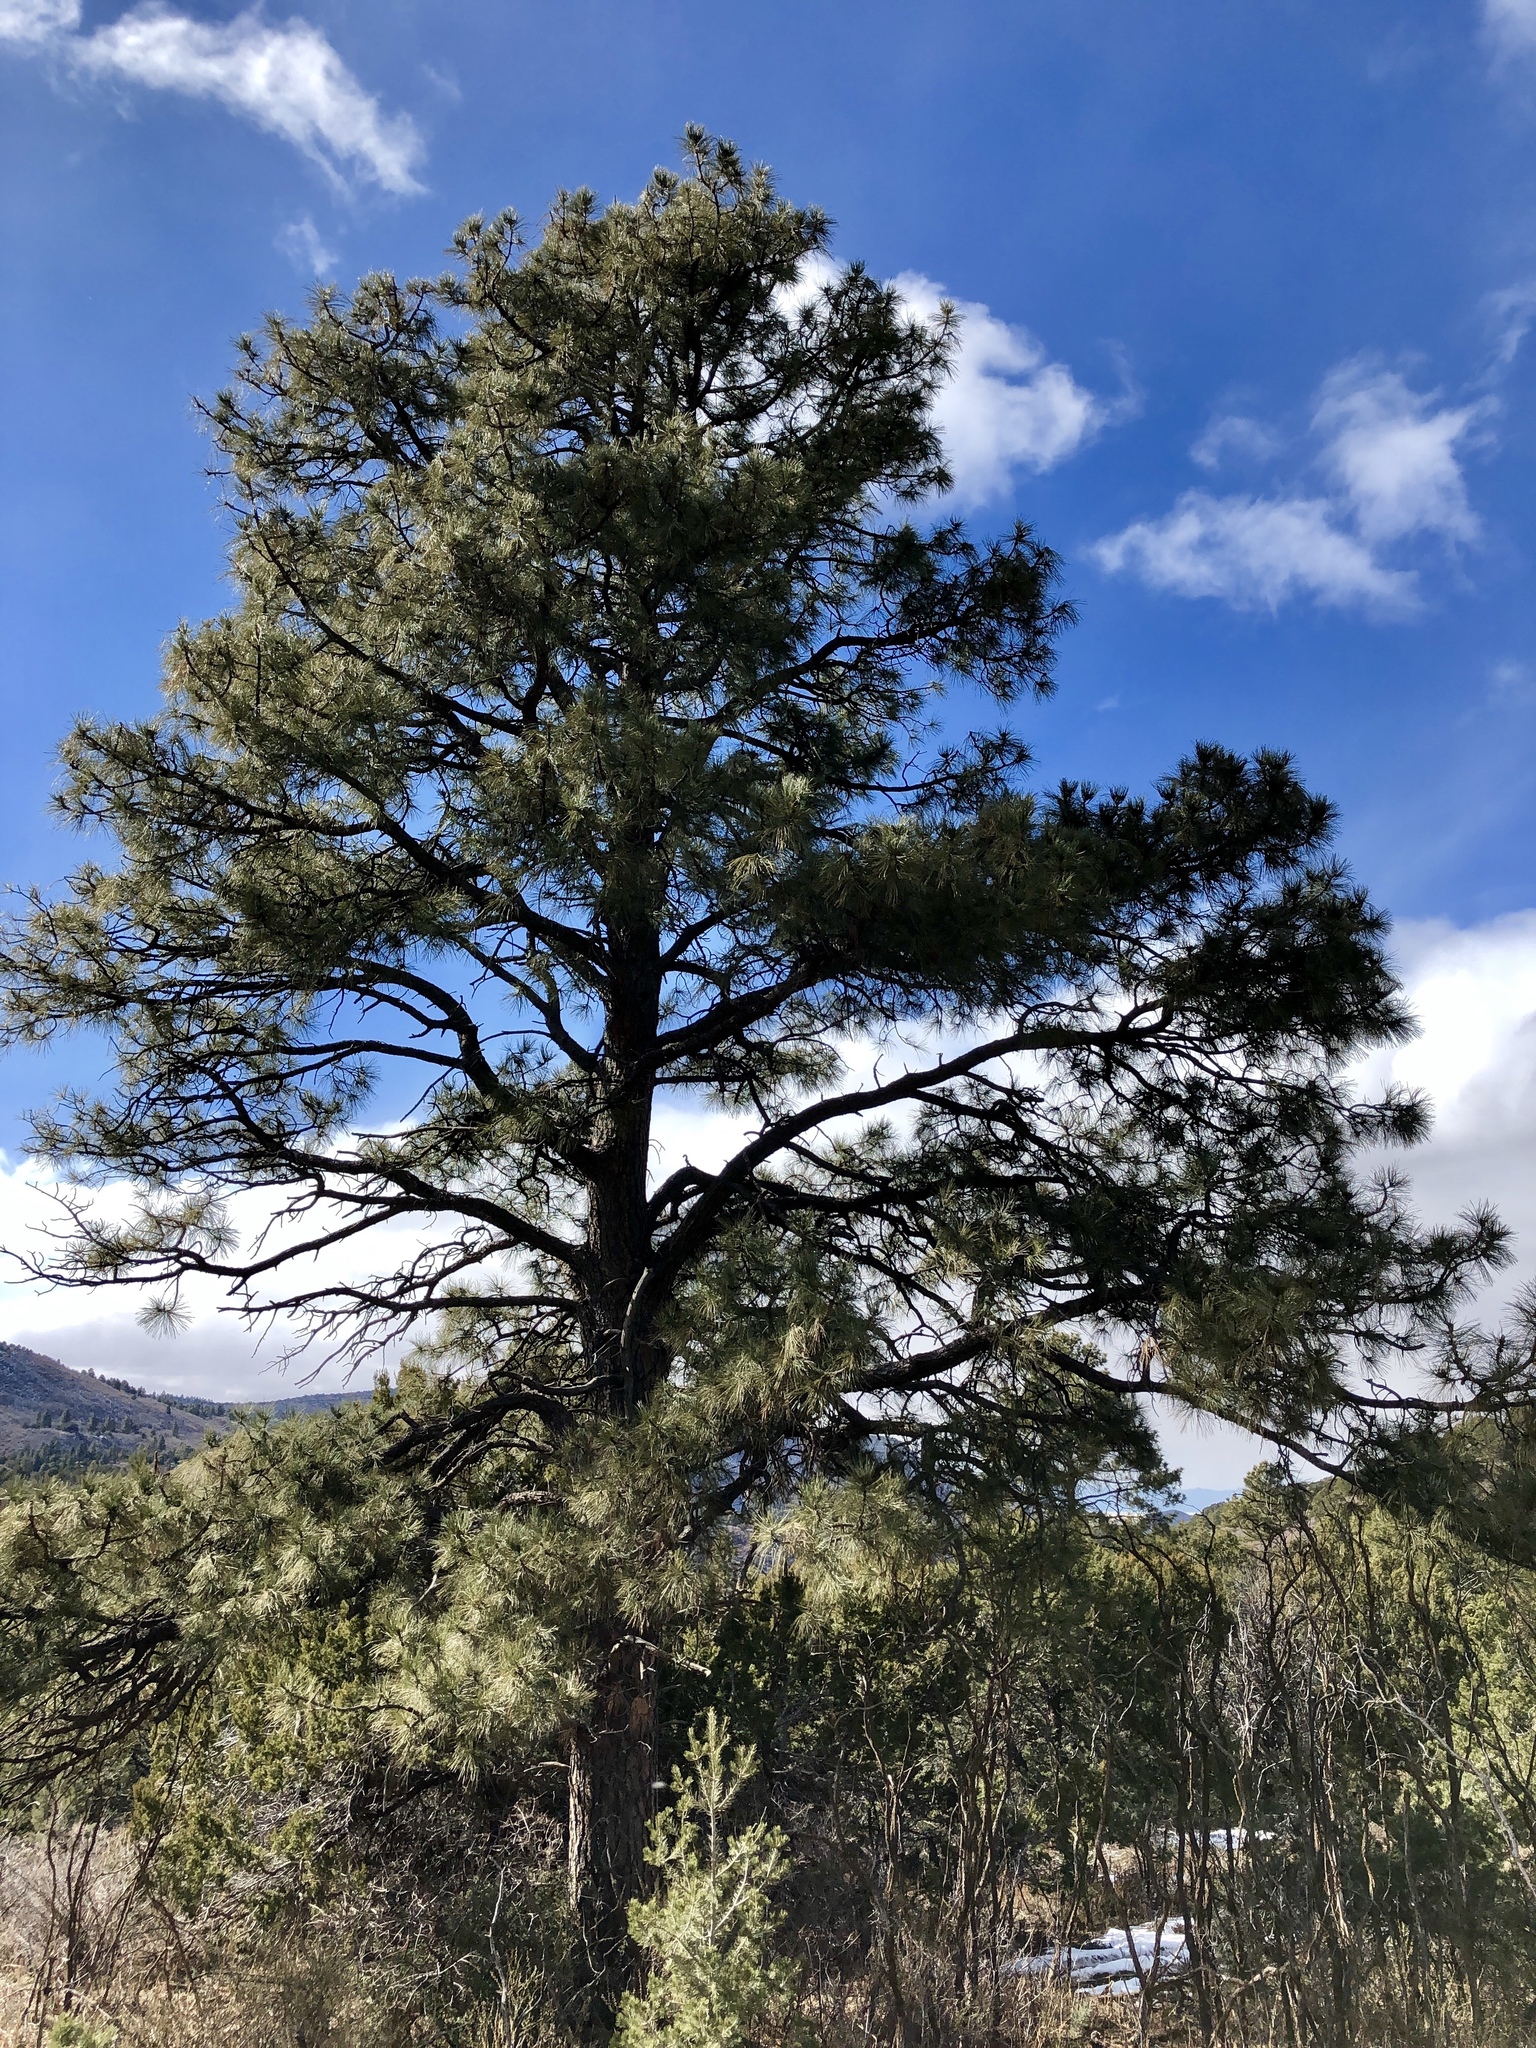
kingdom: Plantae
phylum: Tracheophyta
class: Pinopsida
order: Pinales
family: Pinaceae
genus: Pinus
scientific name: Pinus ponderosa
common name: Western yellow-pine
